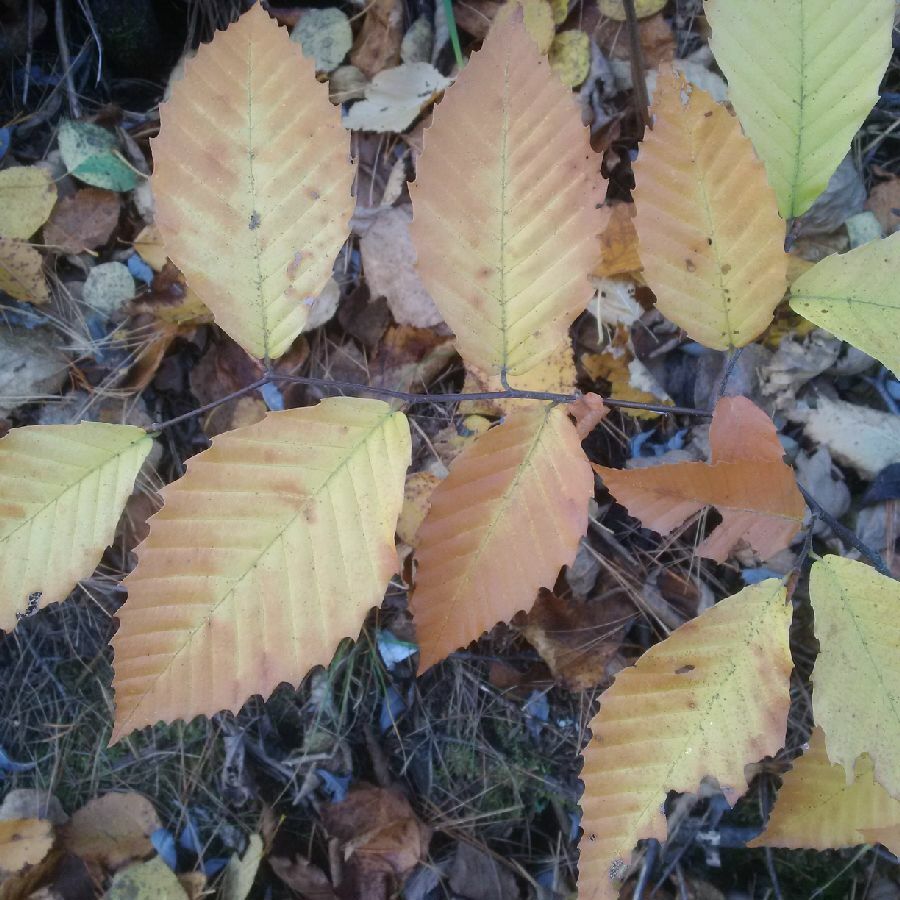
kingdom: Plantae
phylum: Tracheophyta
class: Magnoliopsida
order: Fagales
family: Fagaceae
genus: Fagus
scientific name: Fagus grandifolia
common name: American beech
